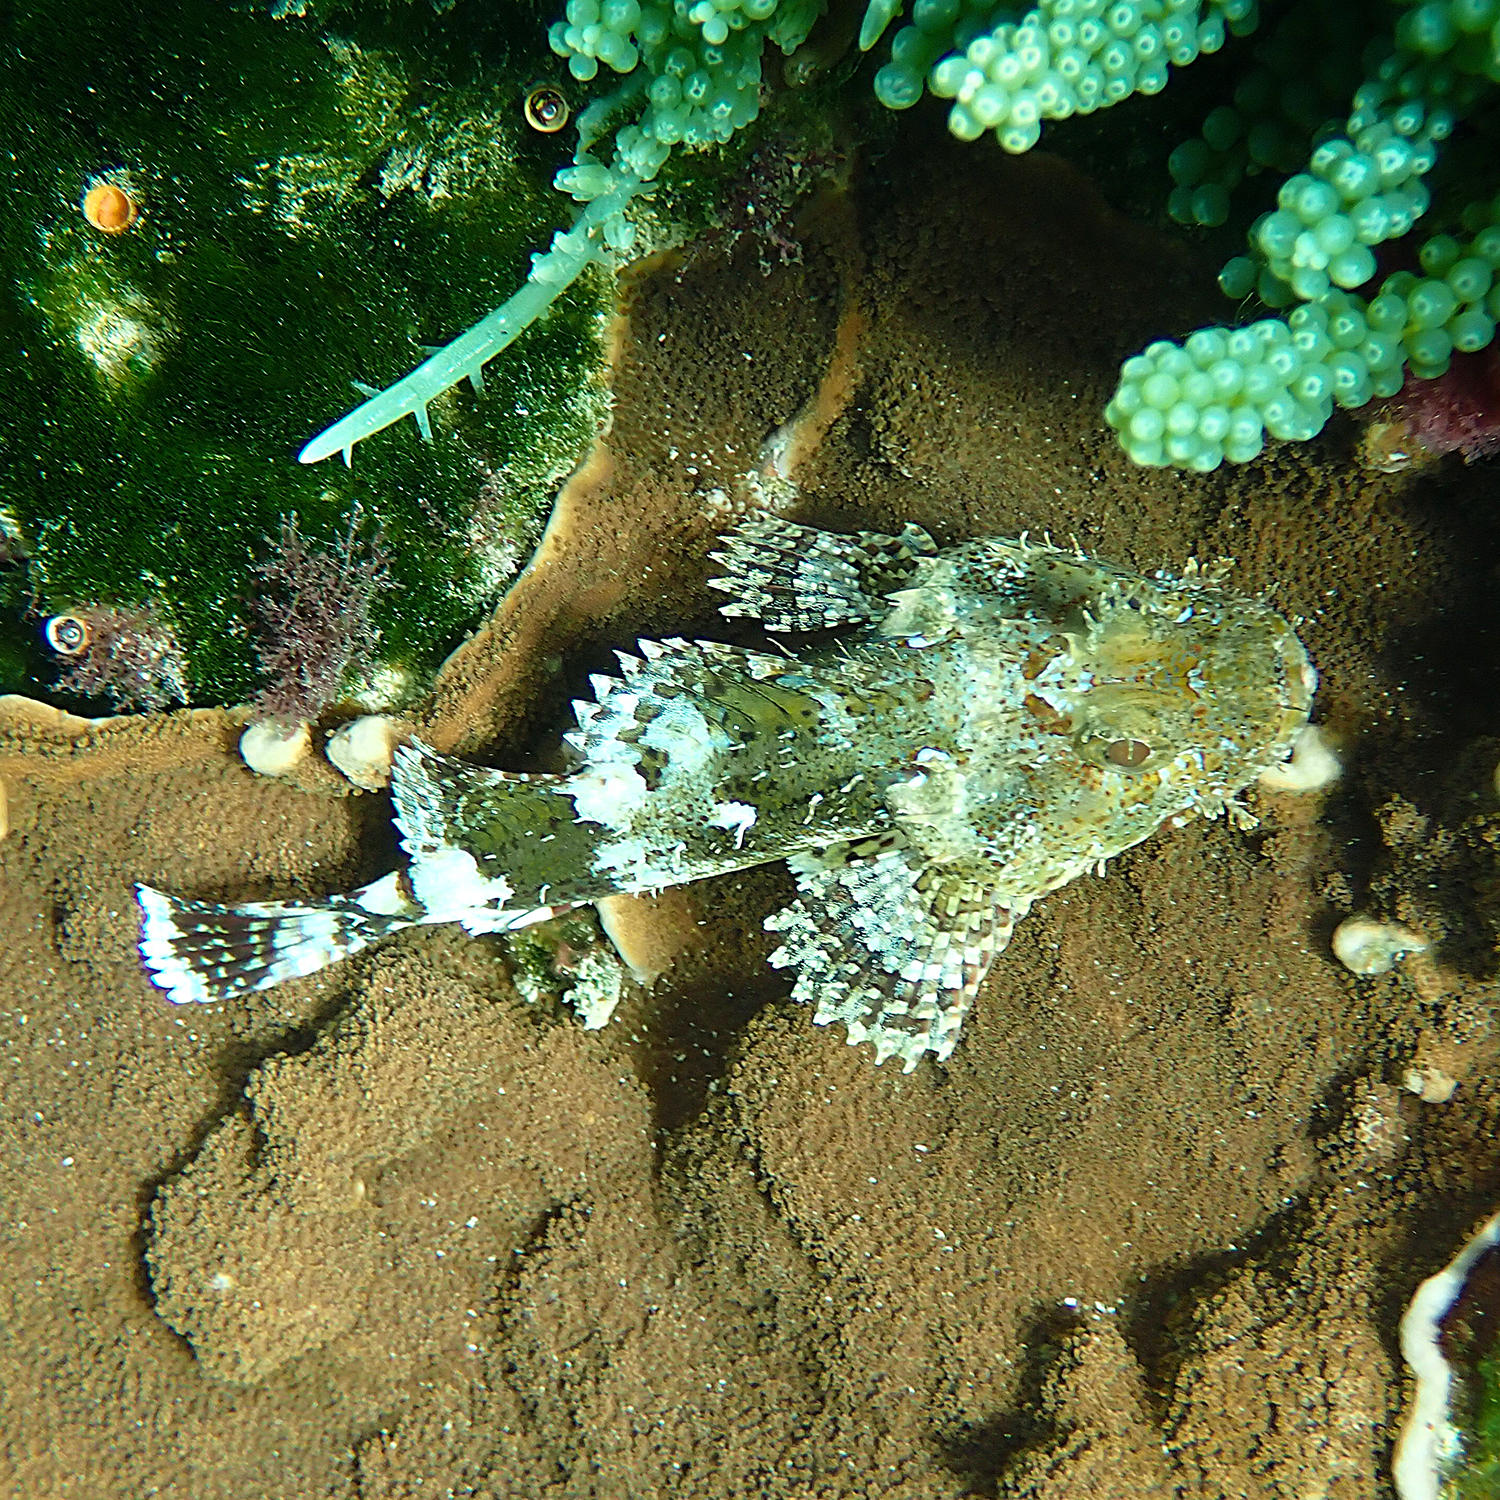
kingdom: Animalia
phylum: Chordata
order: Scorpaeniformes
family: Scorpaenidae
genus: Scorpaena
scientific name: Scorpaena cardinalis
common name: Cardinal scorpionfish
